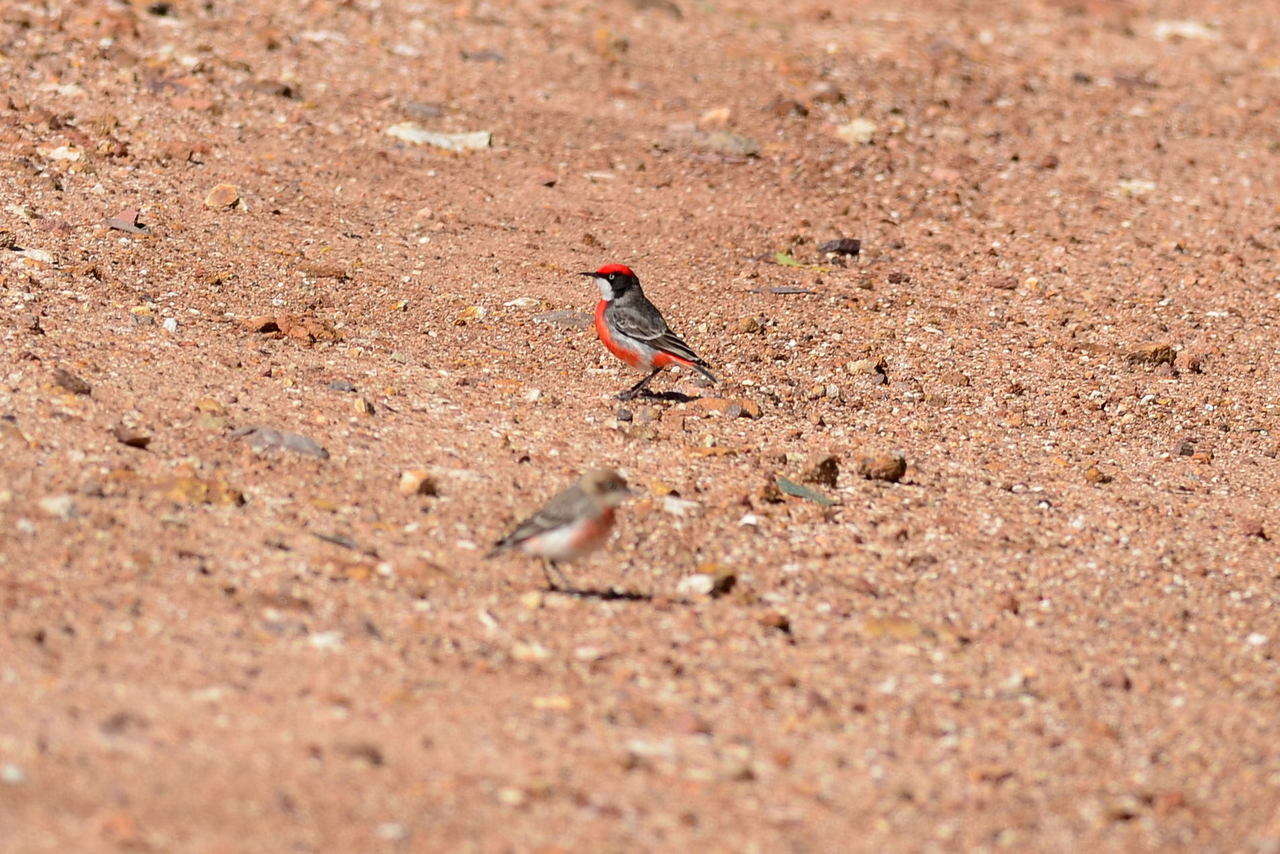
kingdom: Animalia
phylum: Chordata
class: Aves
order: Passeriformes
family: Meliphagidae
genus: Epthianura
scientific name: Epthianura tricolor
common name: Crimson chat
